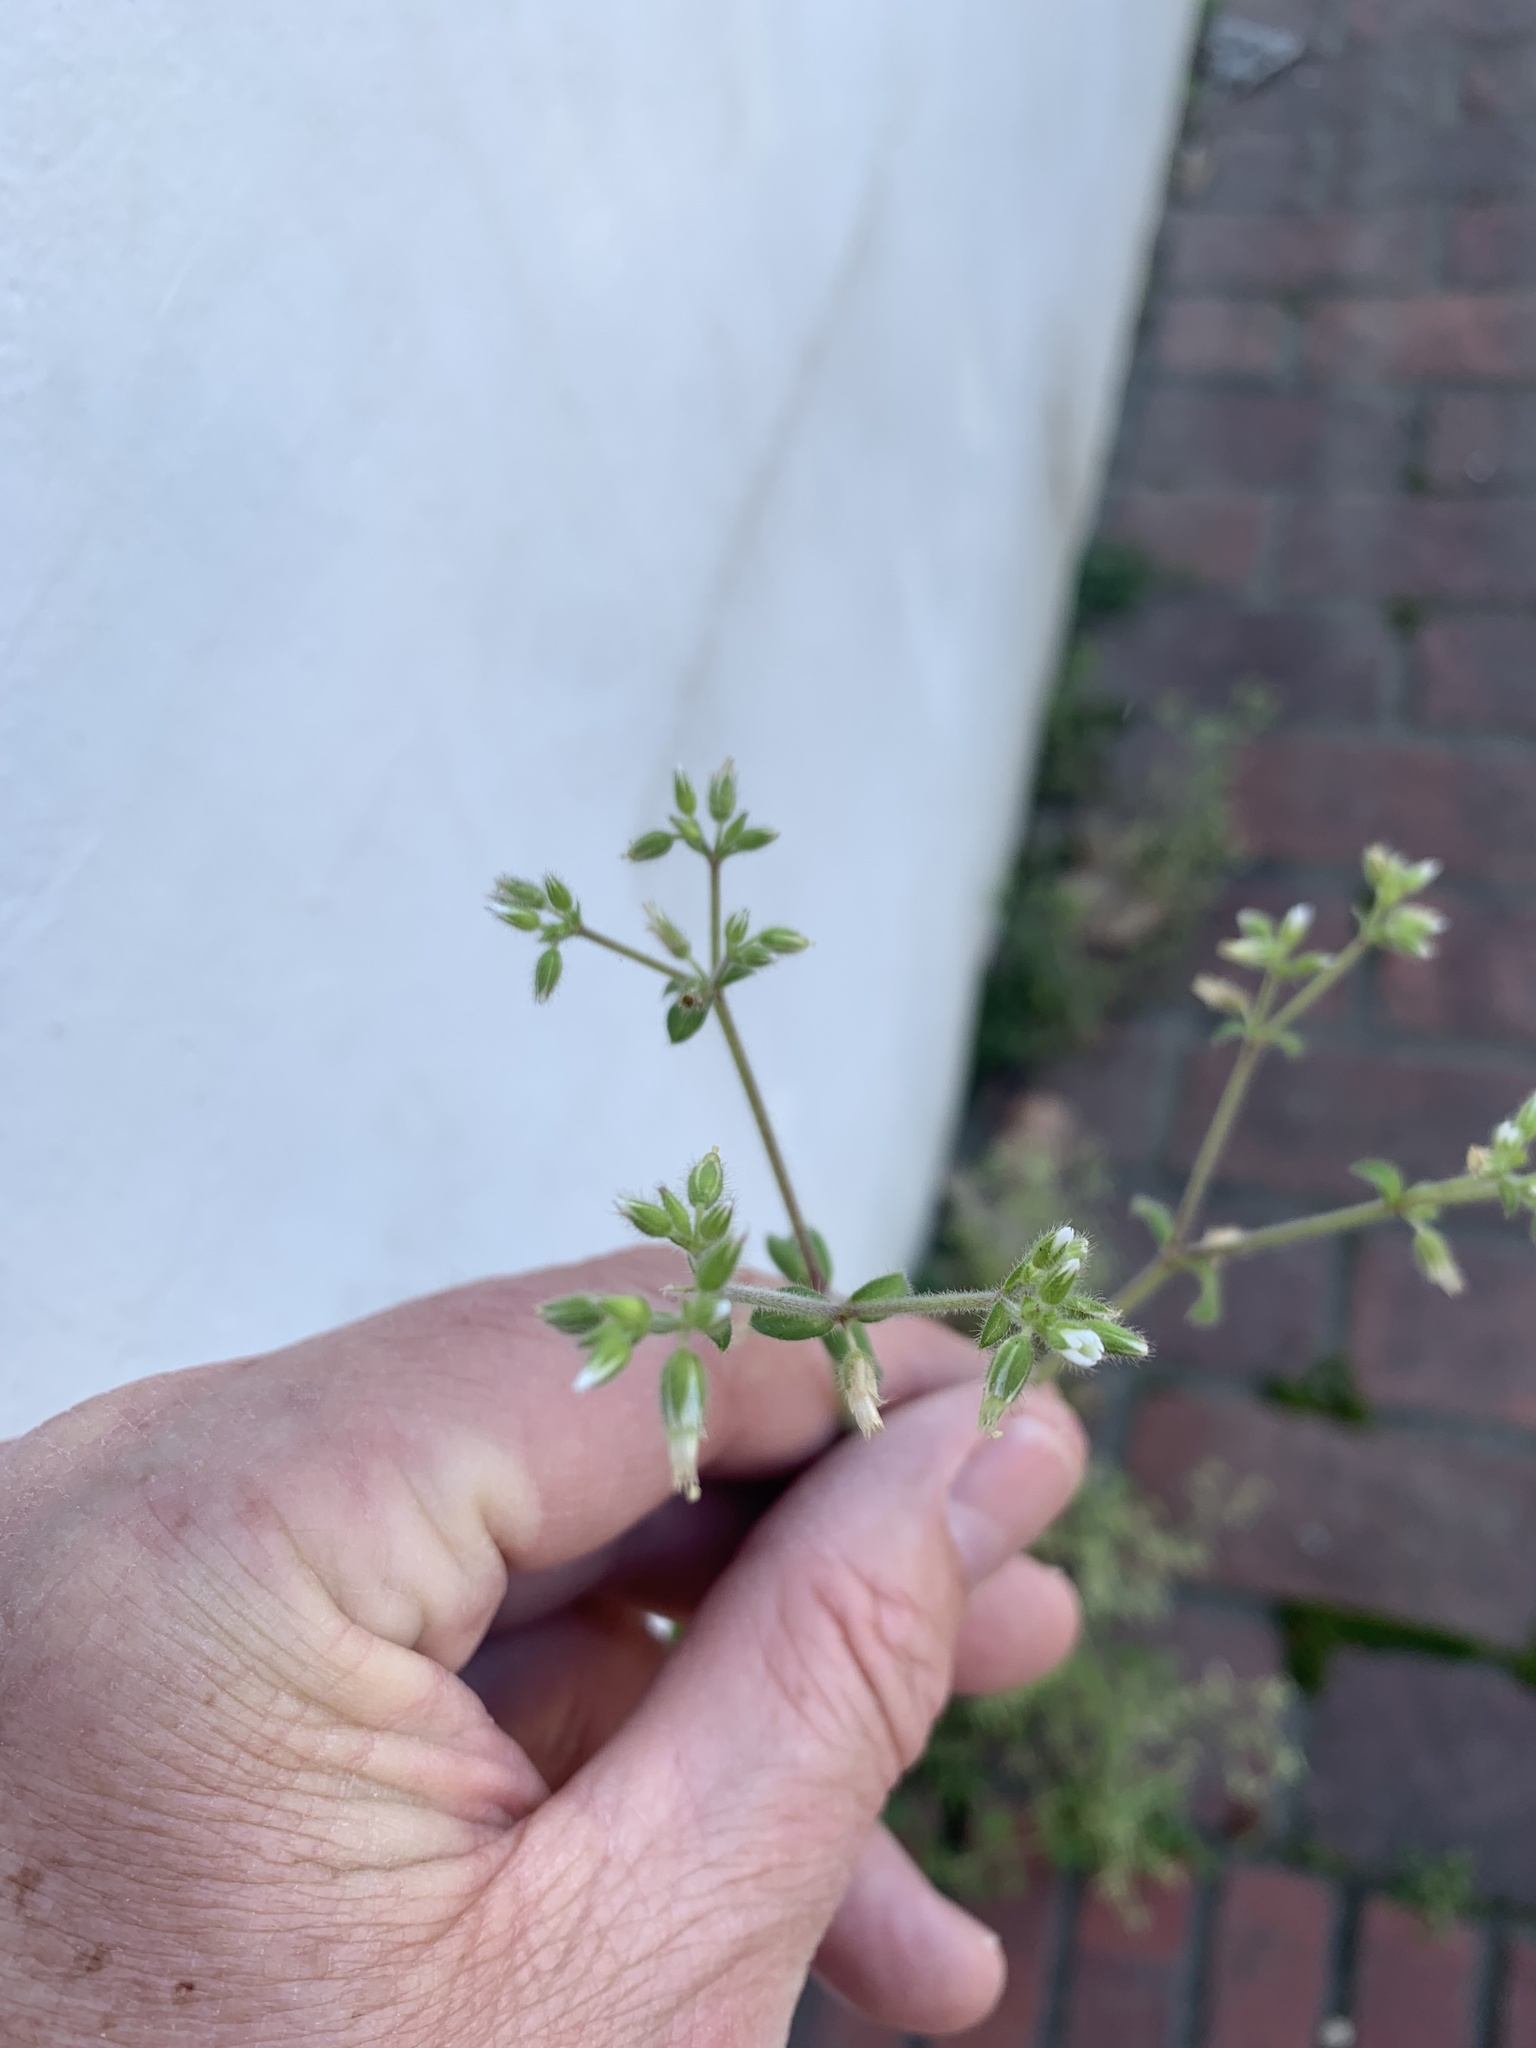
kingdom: Plantae
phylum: Tracheophyta
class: Magnoliopsida
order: Caryophyllales
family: Caryophyllaceae
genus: Cerastium
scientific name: Cerastium glomeratum
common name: Sticky chickweed
